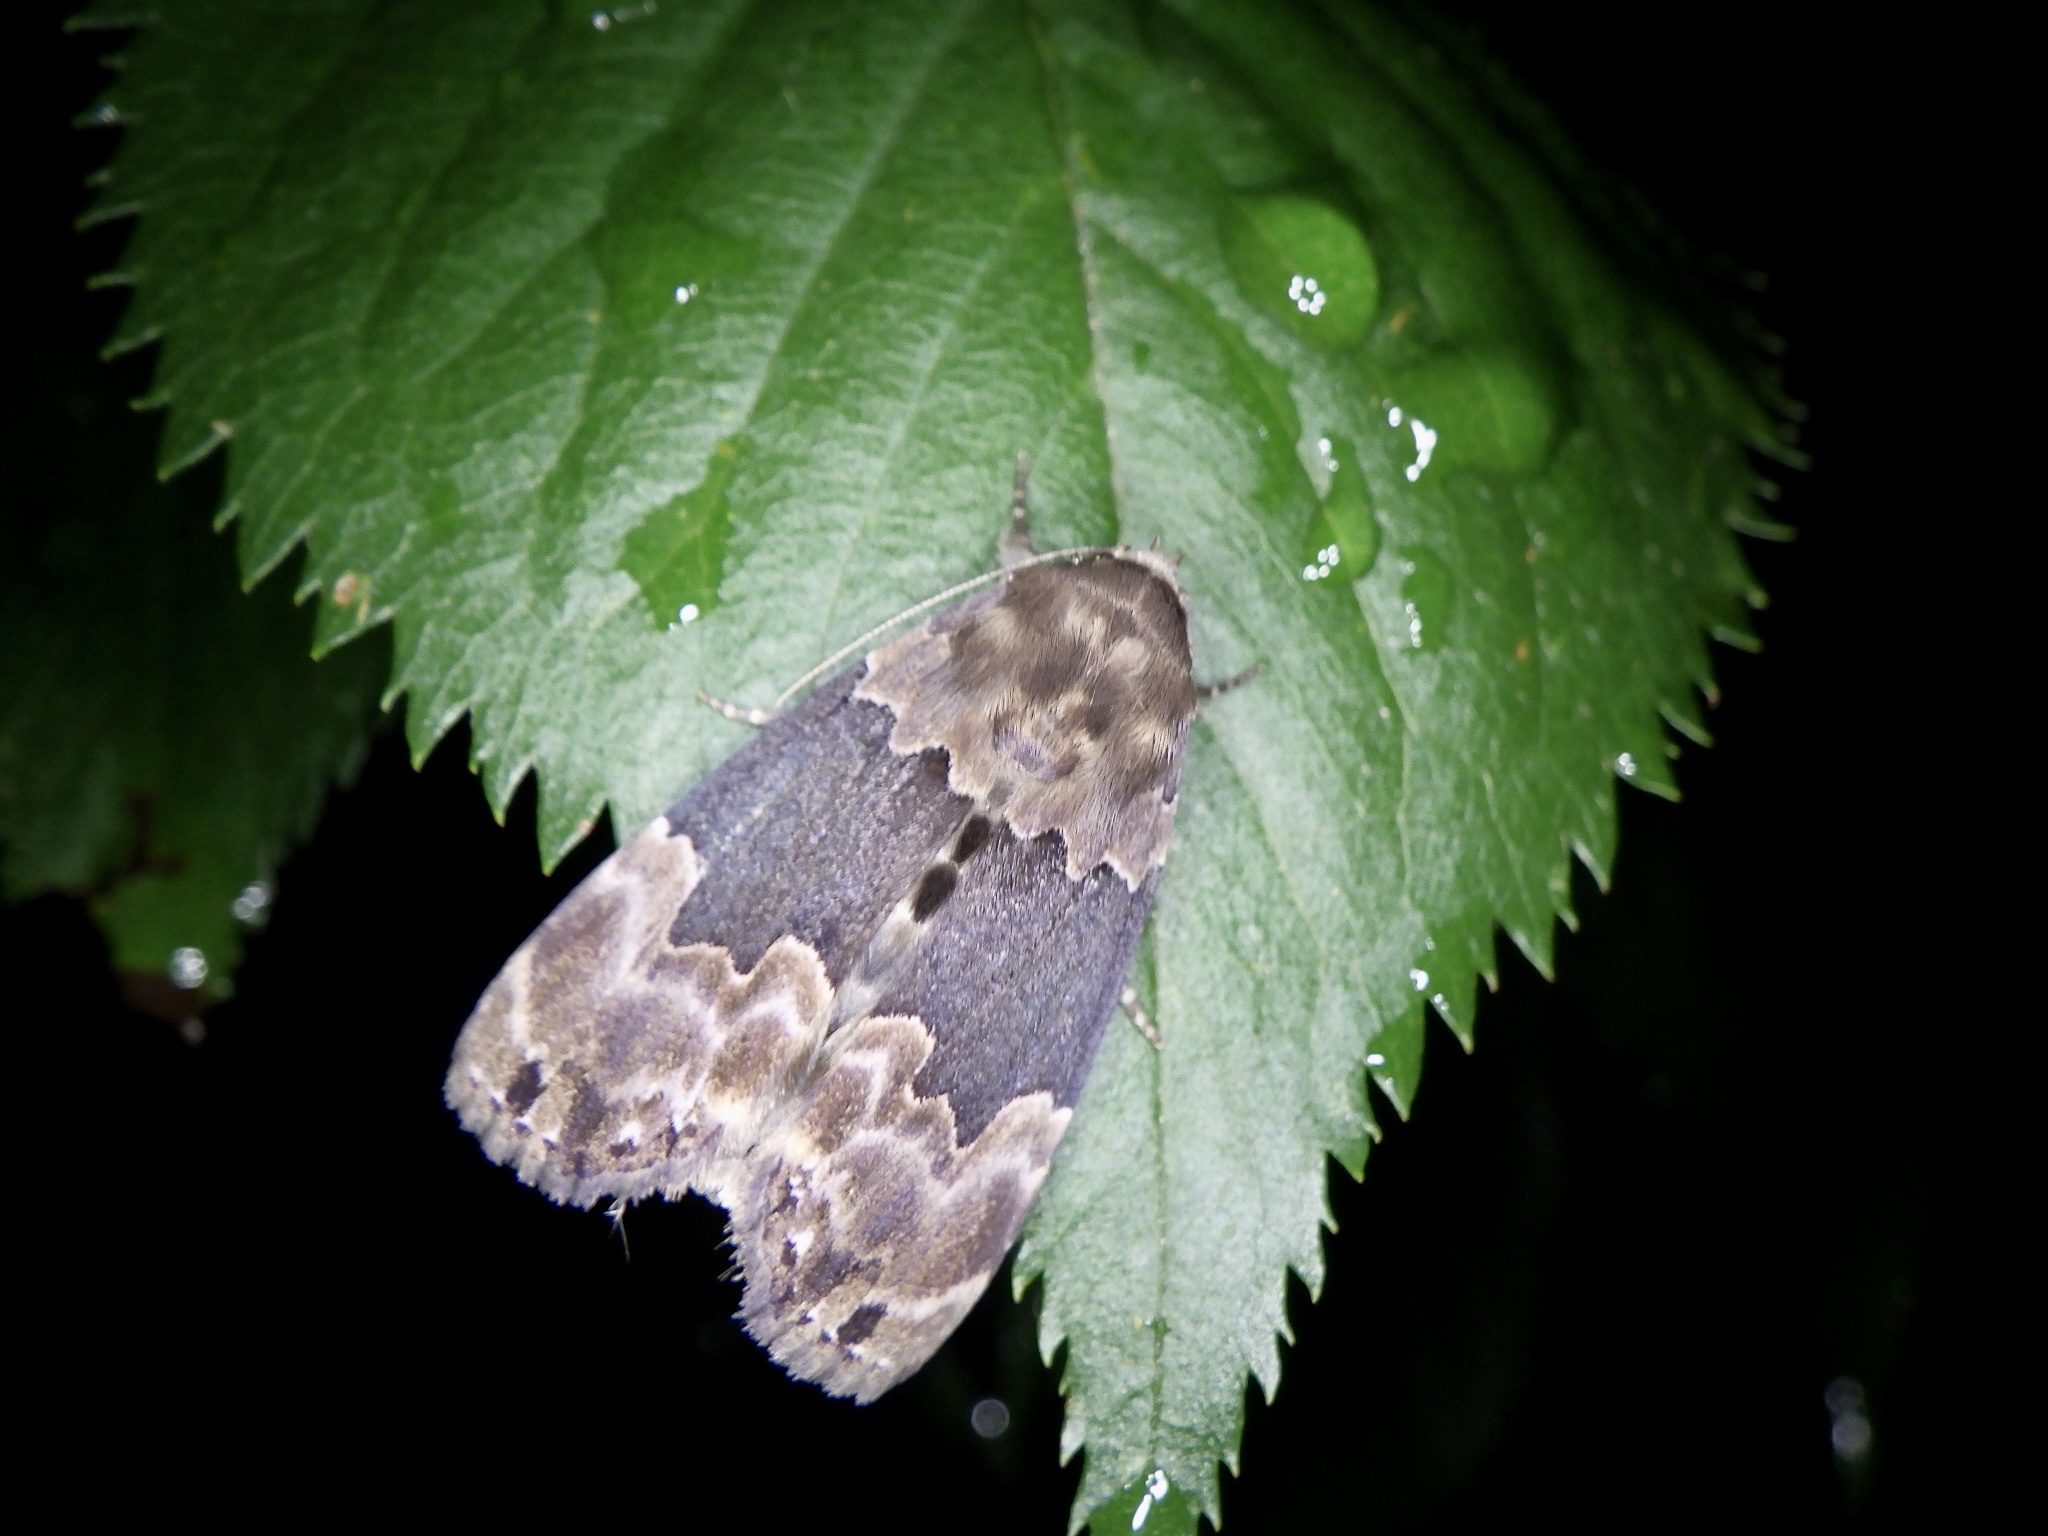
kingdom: Animalia
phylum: Arthropoda
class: Insecta
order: Lepidoptera
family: Erebidae
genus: Dinumma
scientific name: Dinumma deponens
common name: Purplish moth
